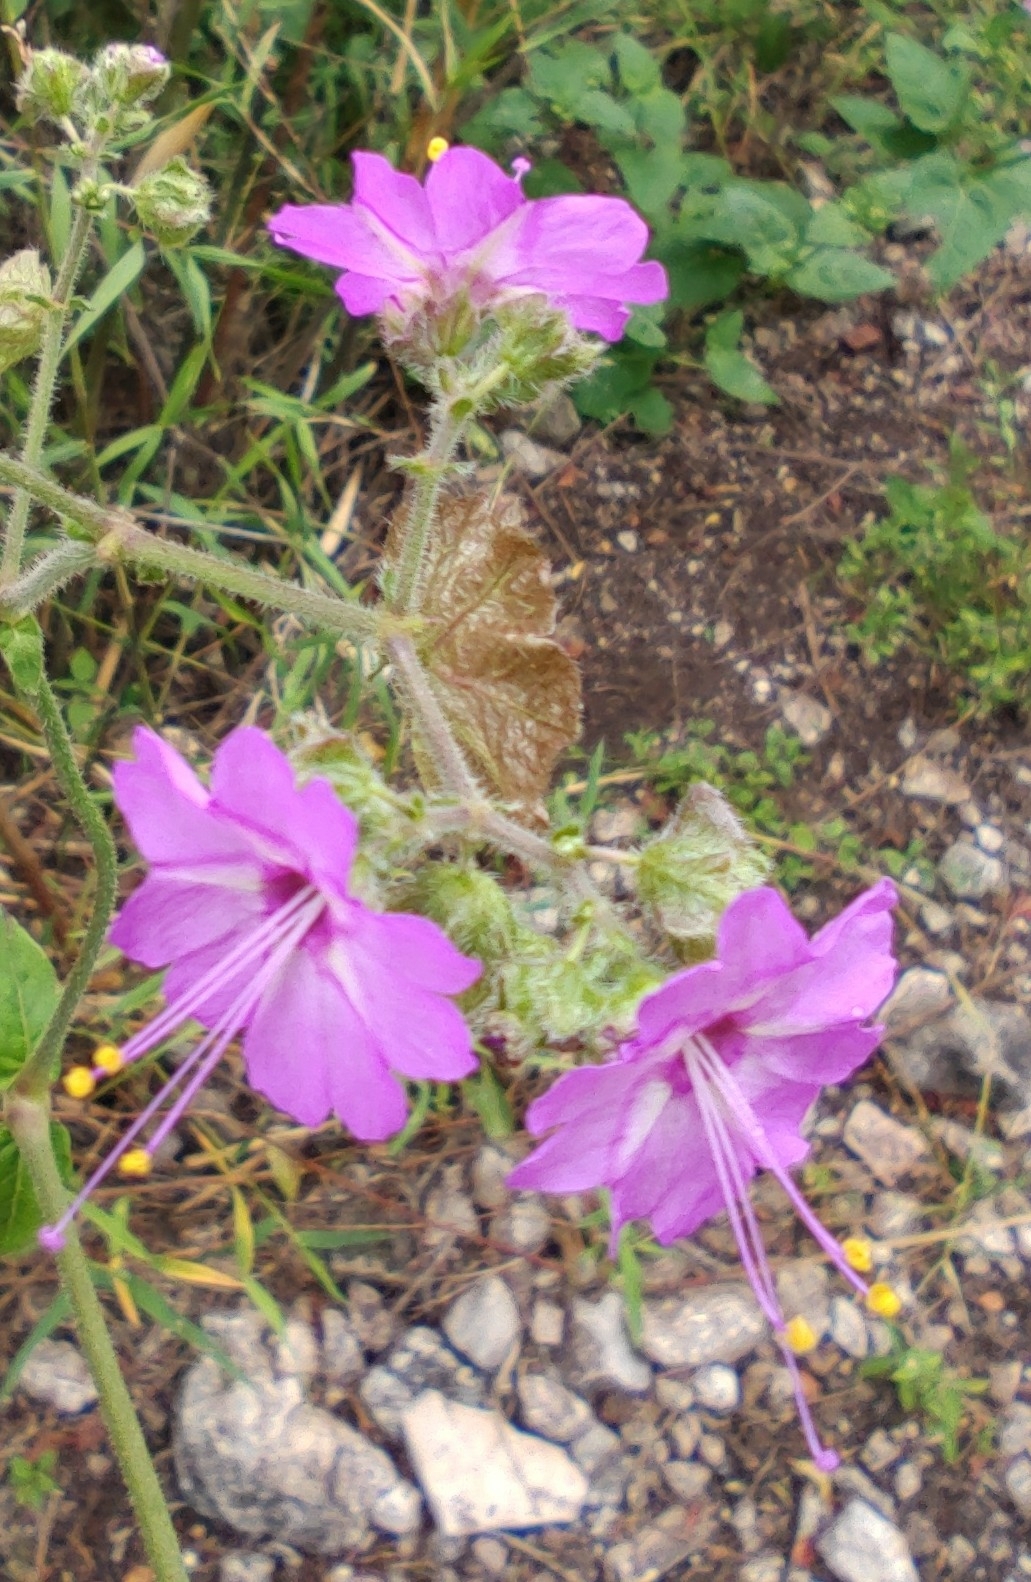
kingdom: Plantae
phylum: Tracheophyta
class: Magnoliopsida
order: Caryophyllales
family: Nyctaginaceae
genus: Mirabilis
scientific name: Mirabilis viscosa
